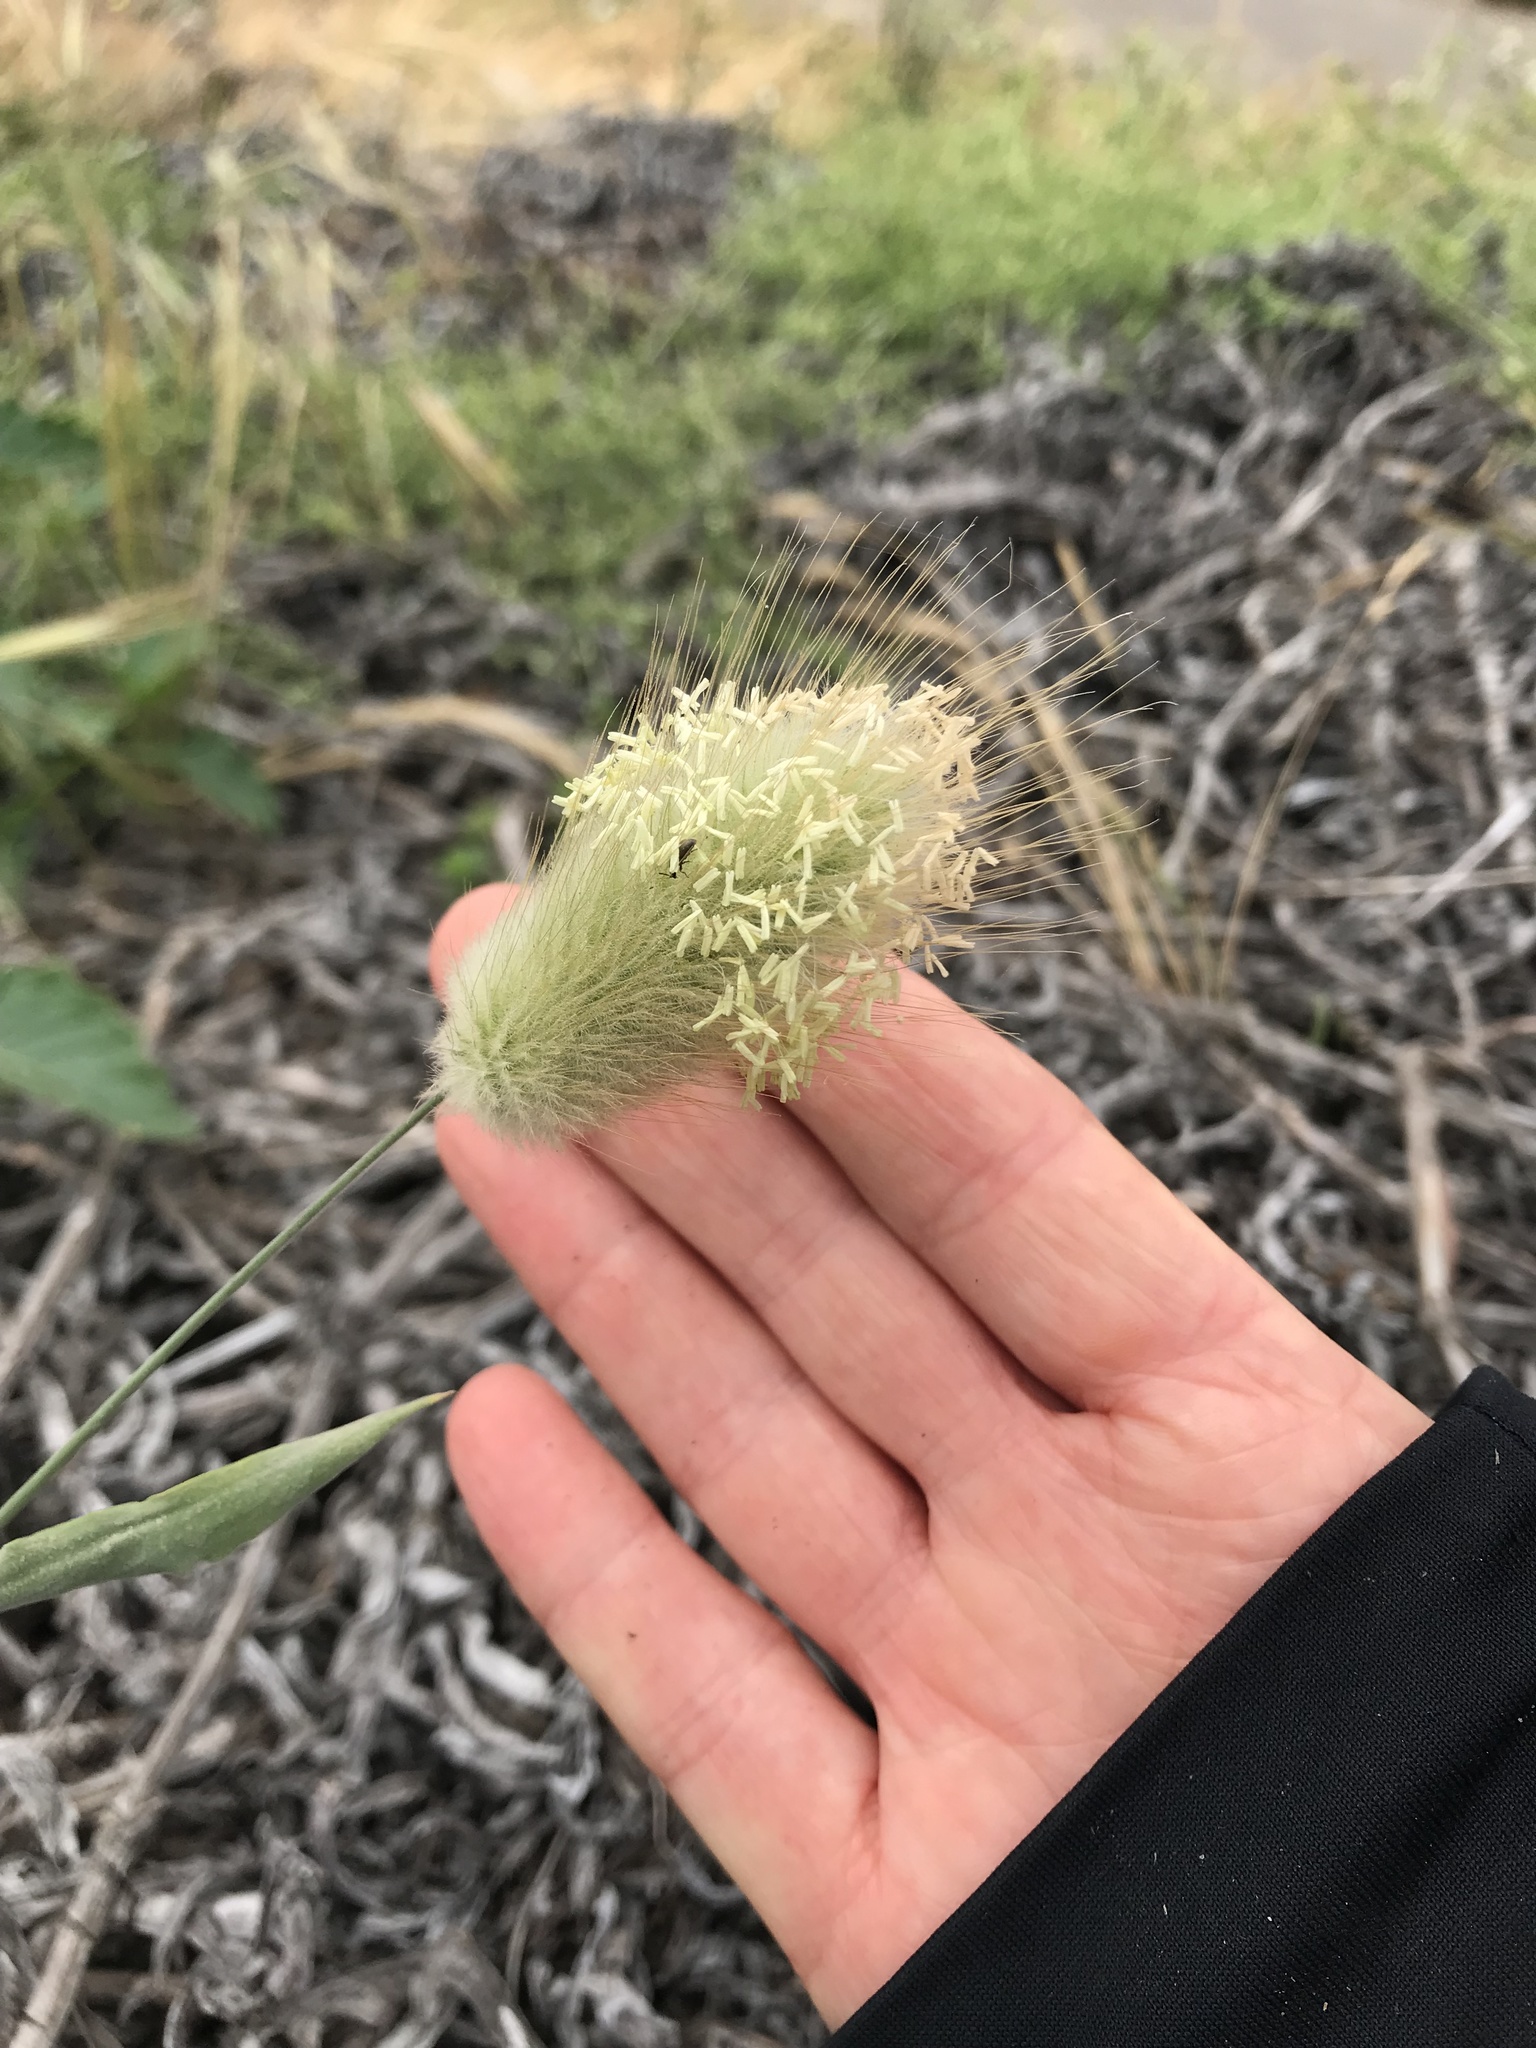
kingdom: Plantae
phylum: Tracheophyta
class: Liliopsida
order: Poales
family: Poaceae
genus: Lagurus
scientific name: Lagurus ovatus
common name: Hare's-tail
